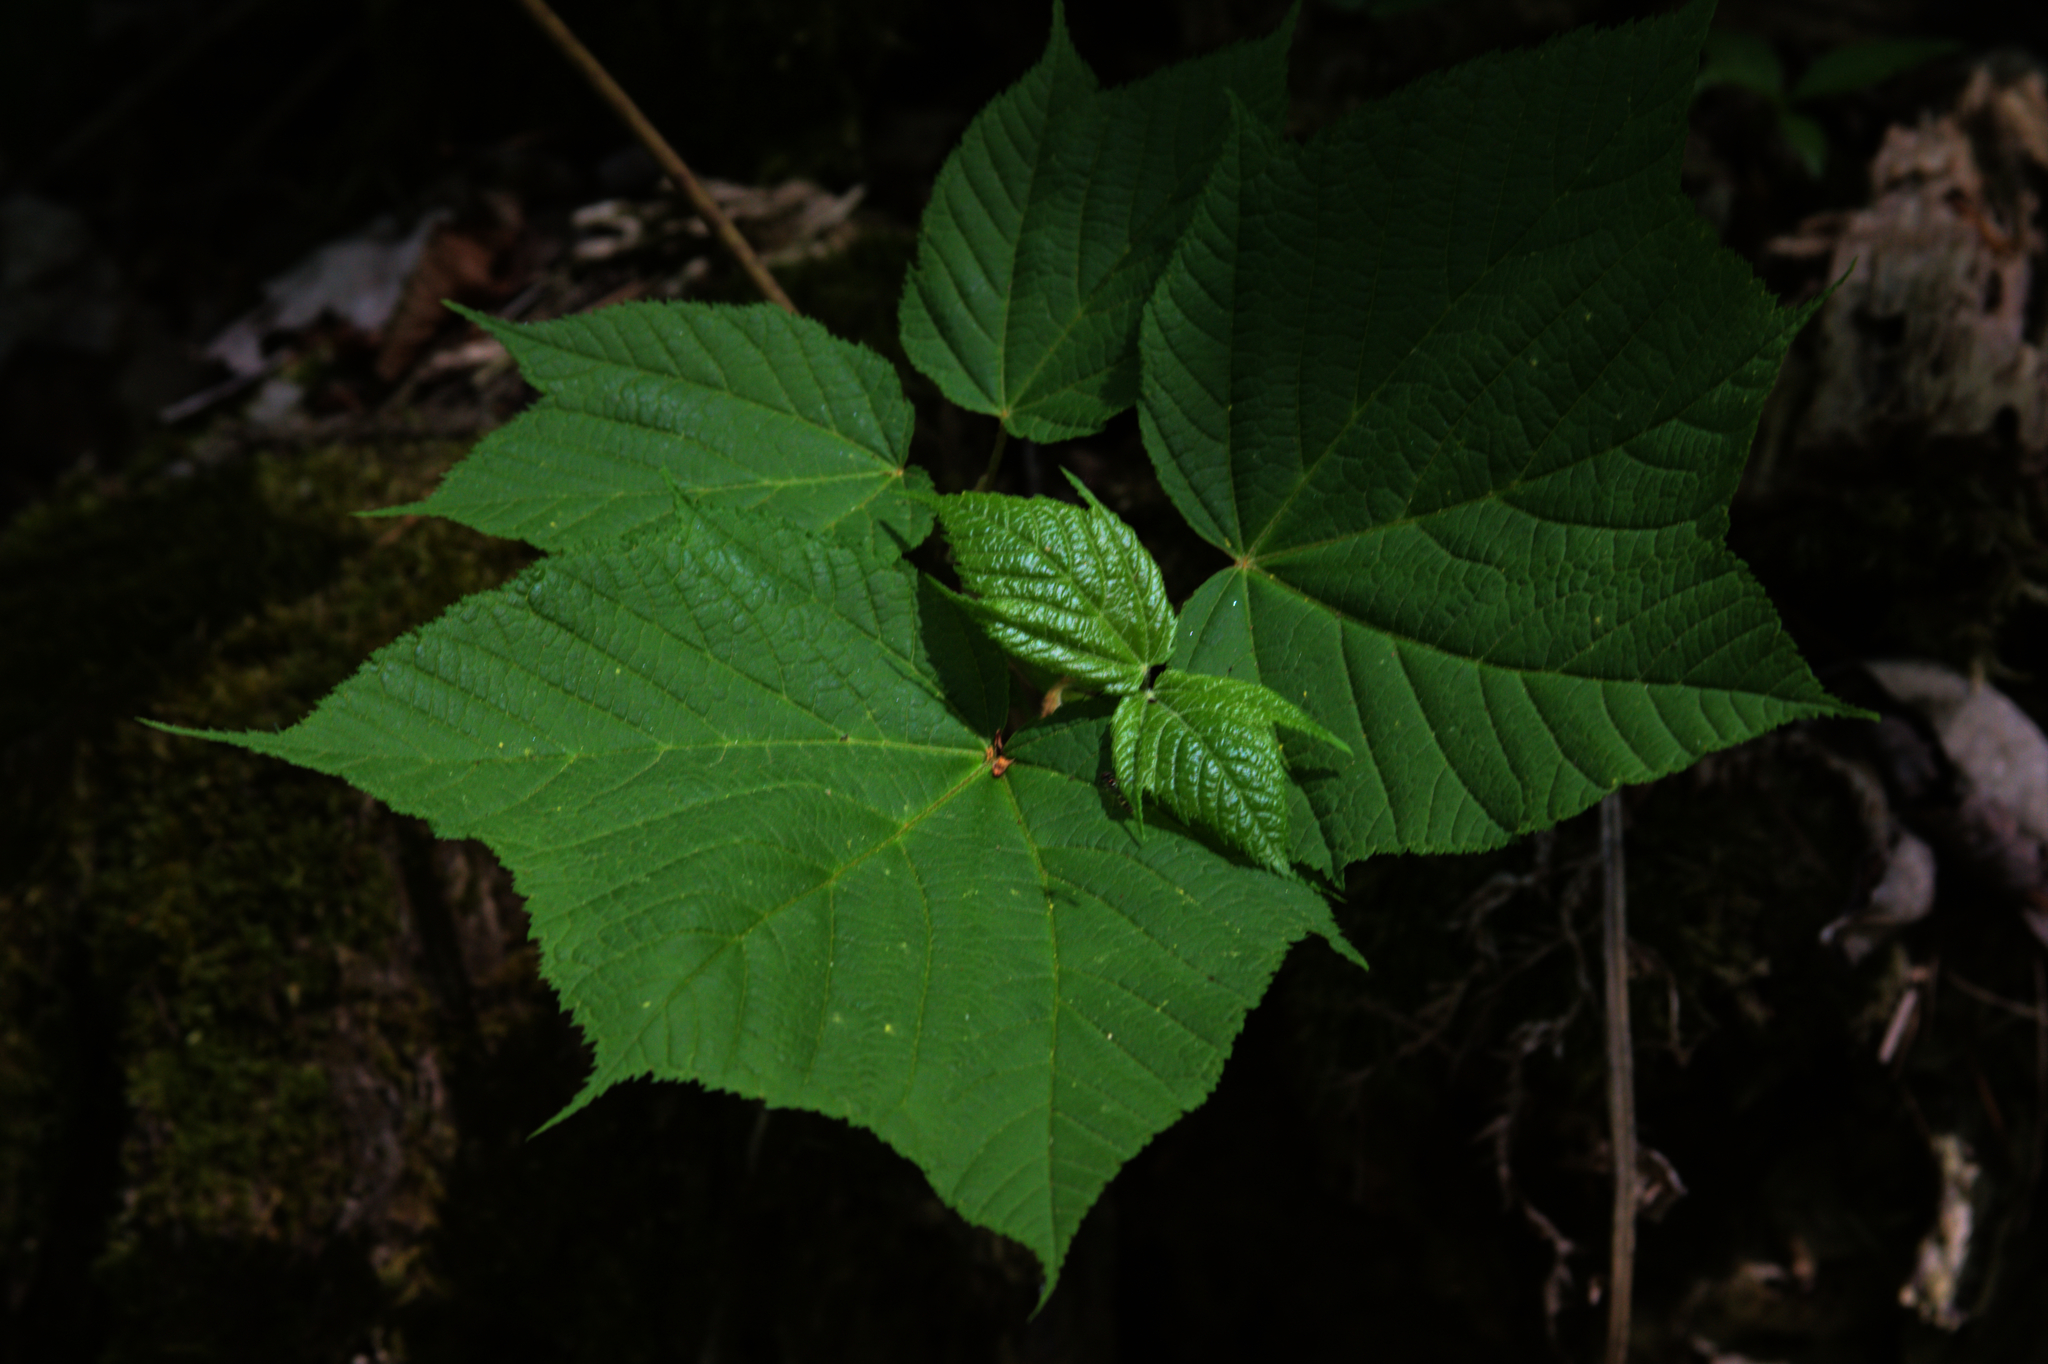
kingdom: Plantae
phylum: Tracheophyta
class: Magnoliopsida
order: Sapindales
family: Sapindaceae
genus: Acer
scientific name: Acer pensylvanicum
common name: Moosewood
